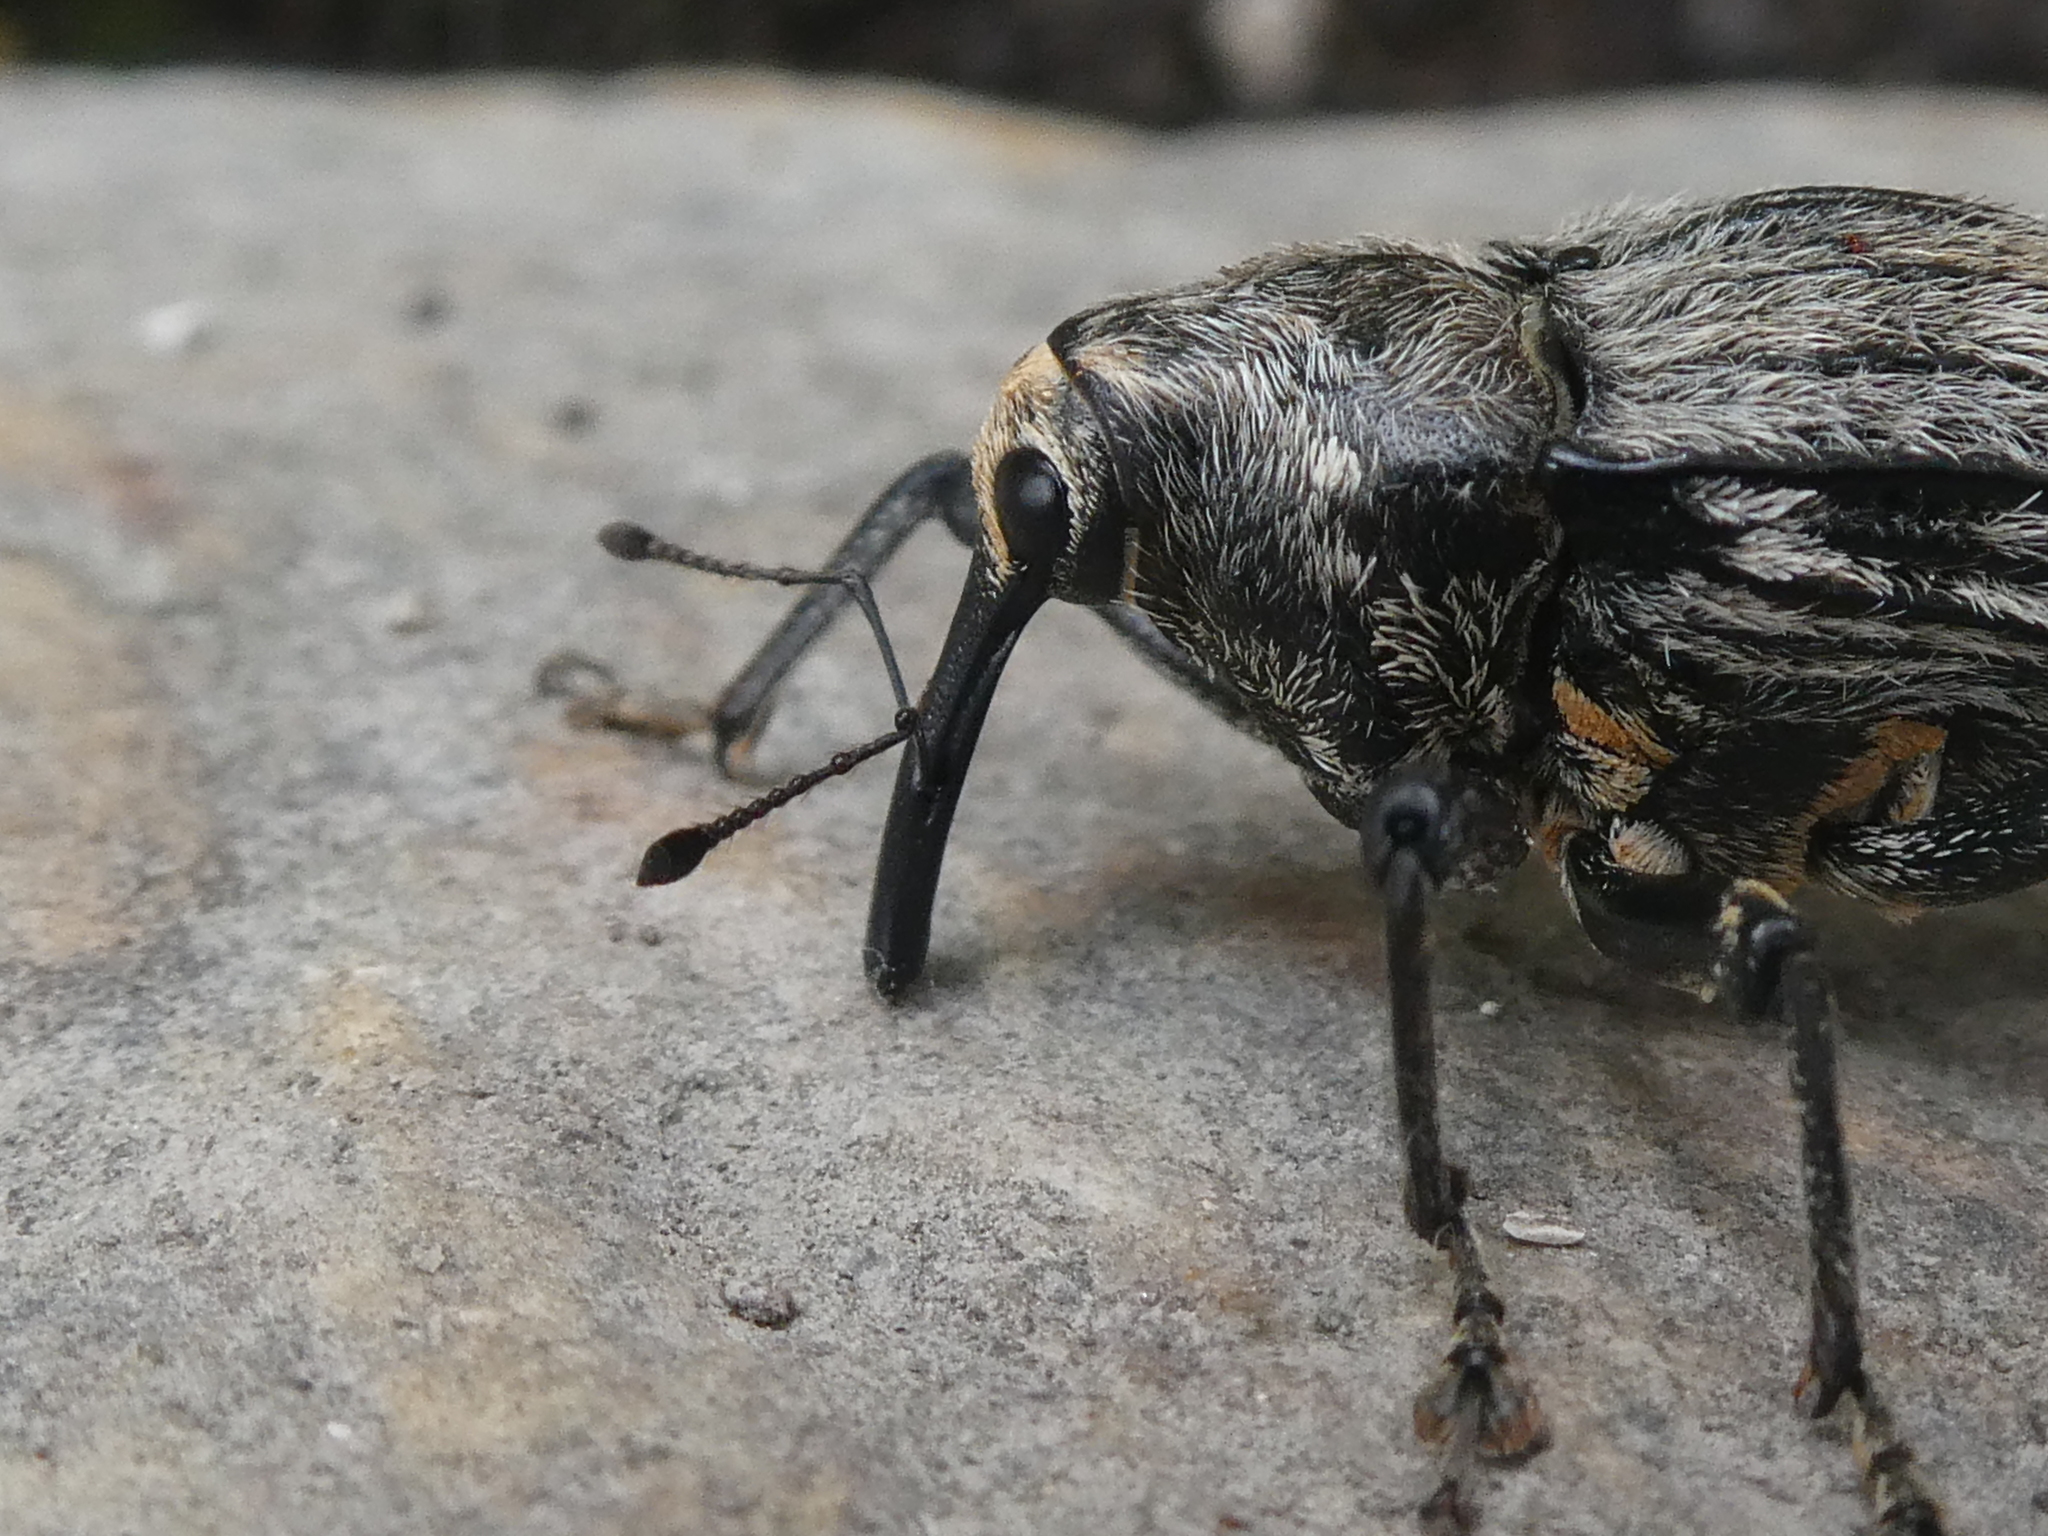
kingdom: Animalia
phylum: Arthropoda
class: Insecta
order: Coleoptera
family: Curculionidae
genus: Rhynchodes
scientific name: Rhynchodes ursus
